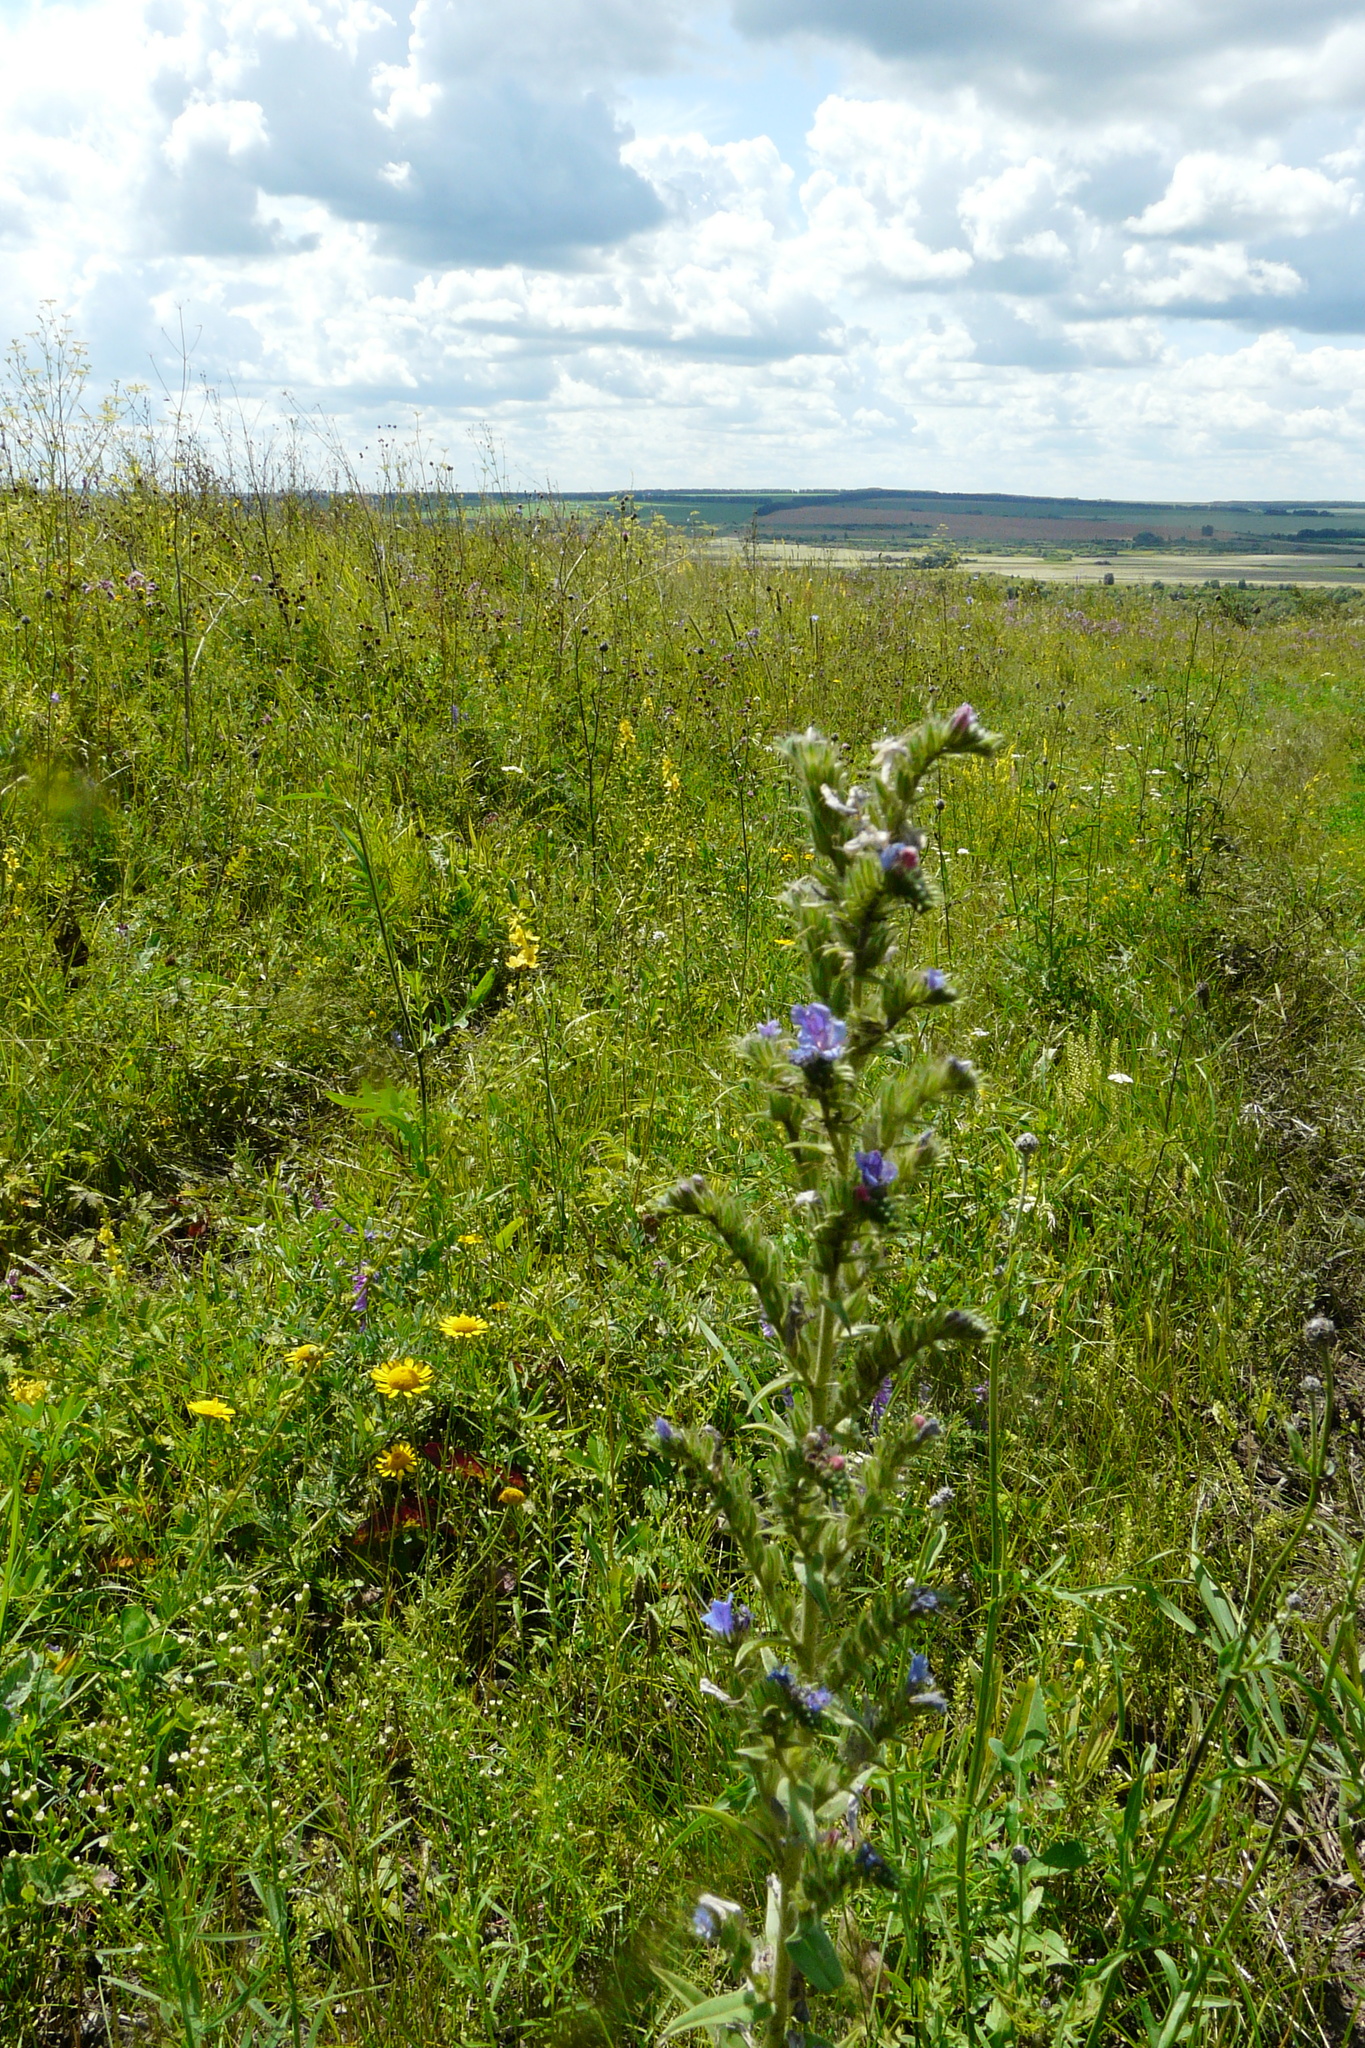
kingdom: Plantae
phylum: Tracheophyta
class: Magnoliopsida
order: Boraginales
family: Boraginaceae
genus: Echium
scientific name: Echium vulgare
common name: Common viper's bugloss
